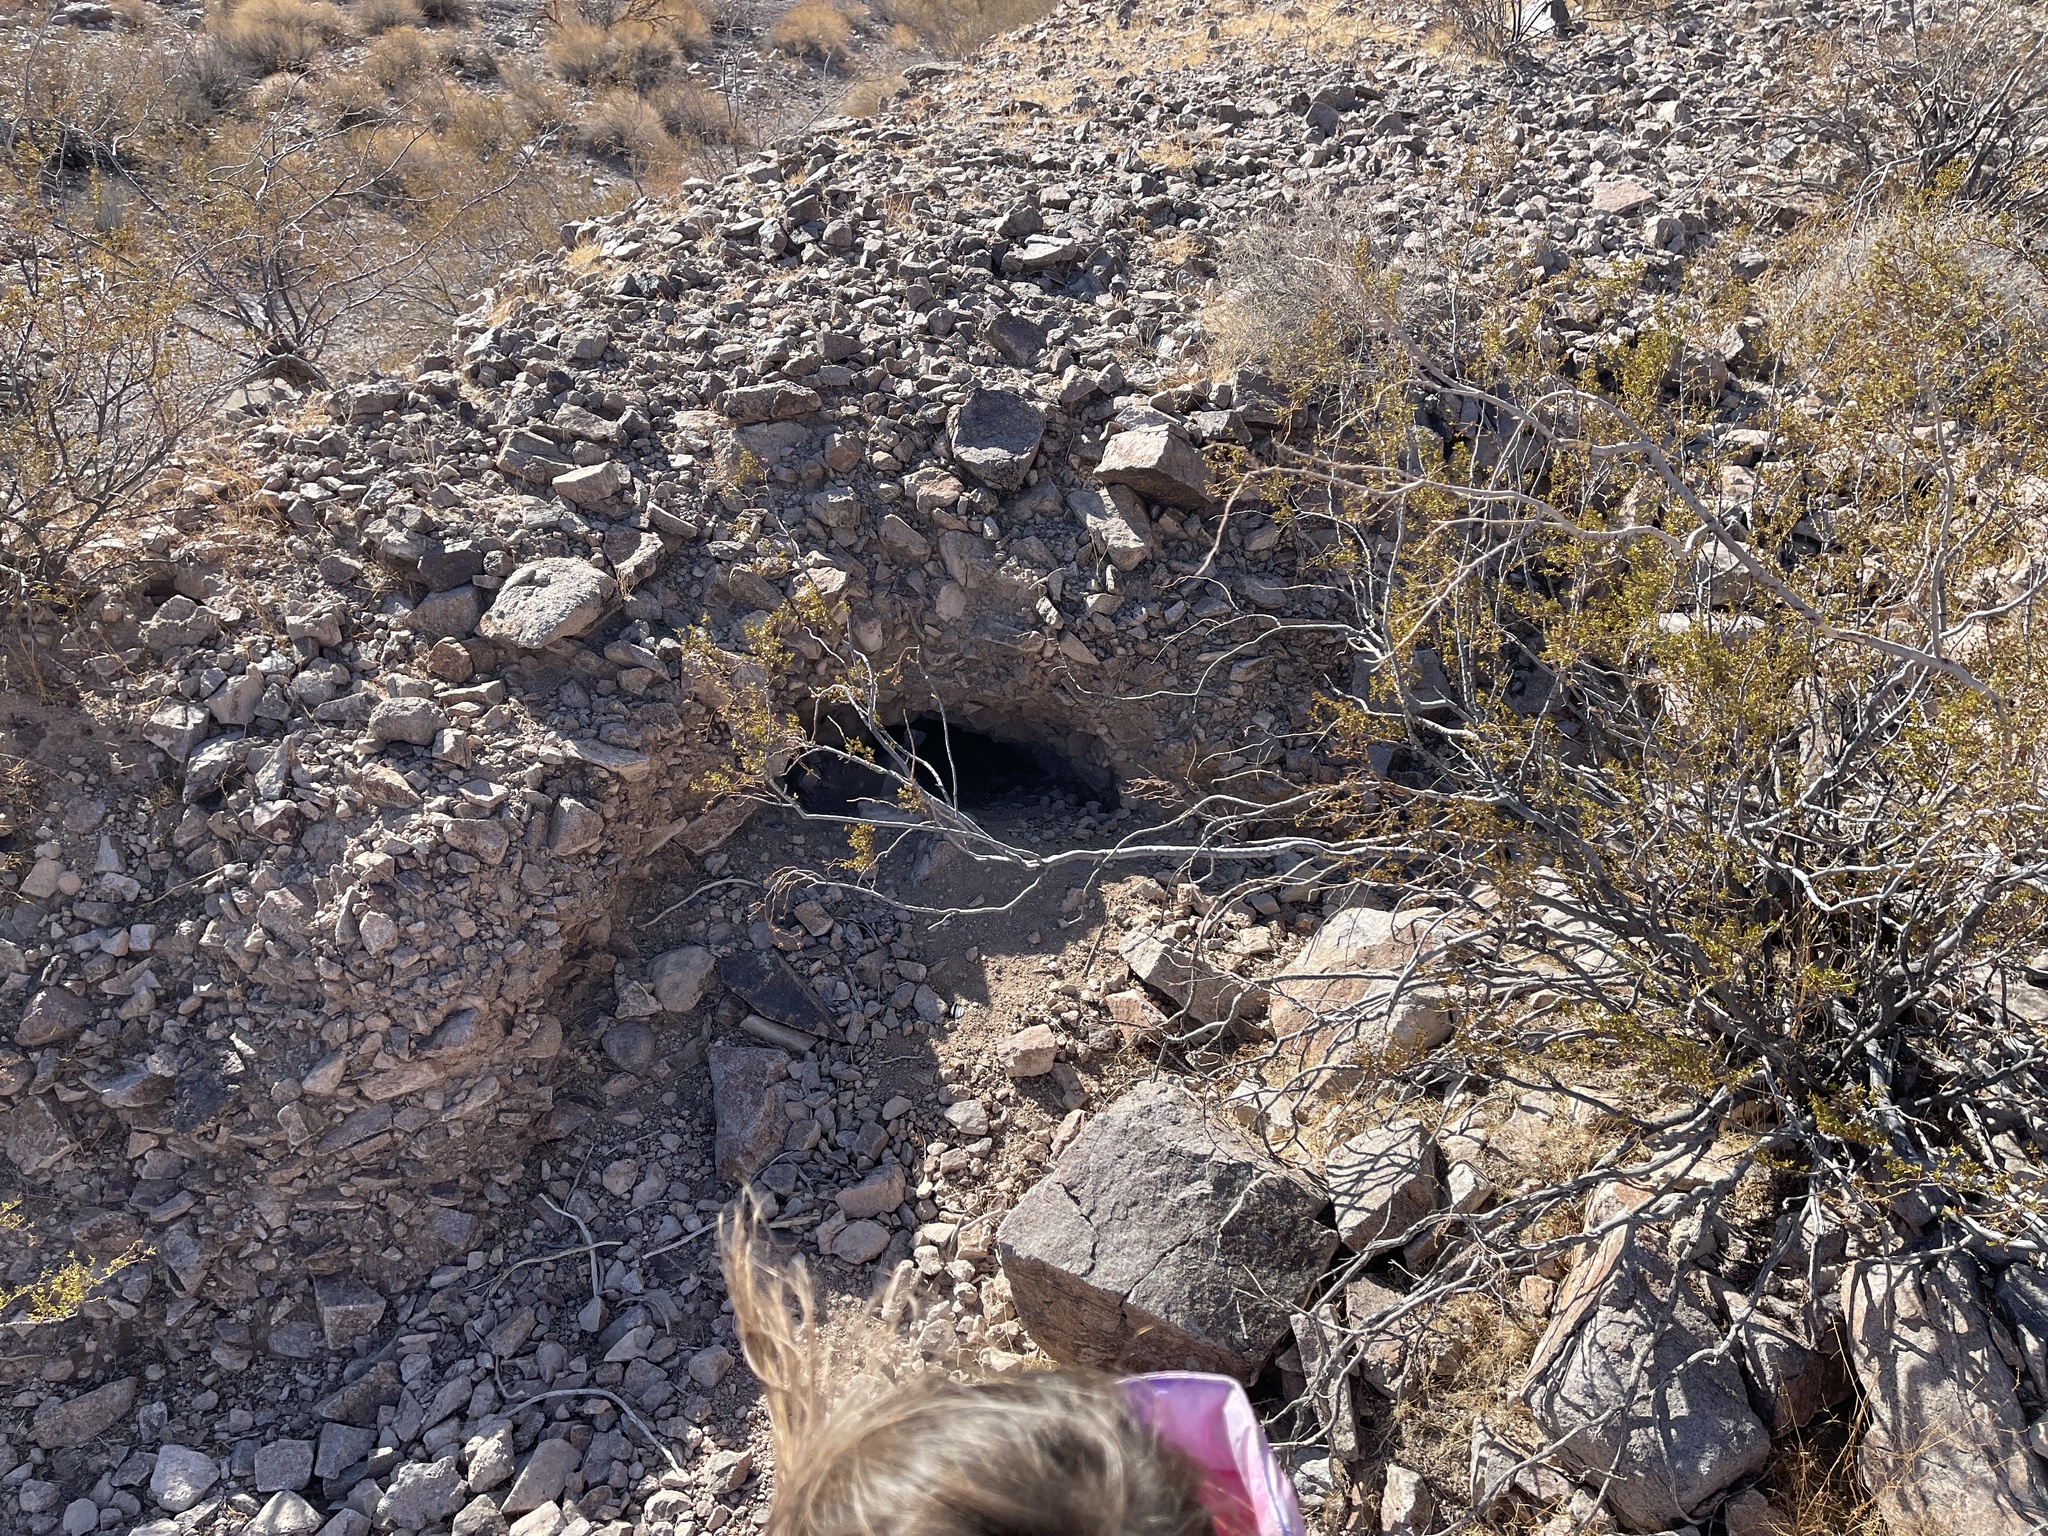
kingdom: Animalia
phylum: Chordata
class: Testudines
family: Testudinidae
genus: Gopherus
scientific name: Gopherus agassizii
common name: Mojave desert tortoise
